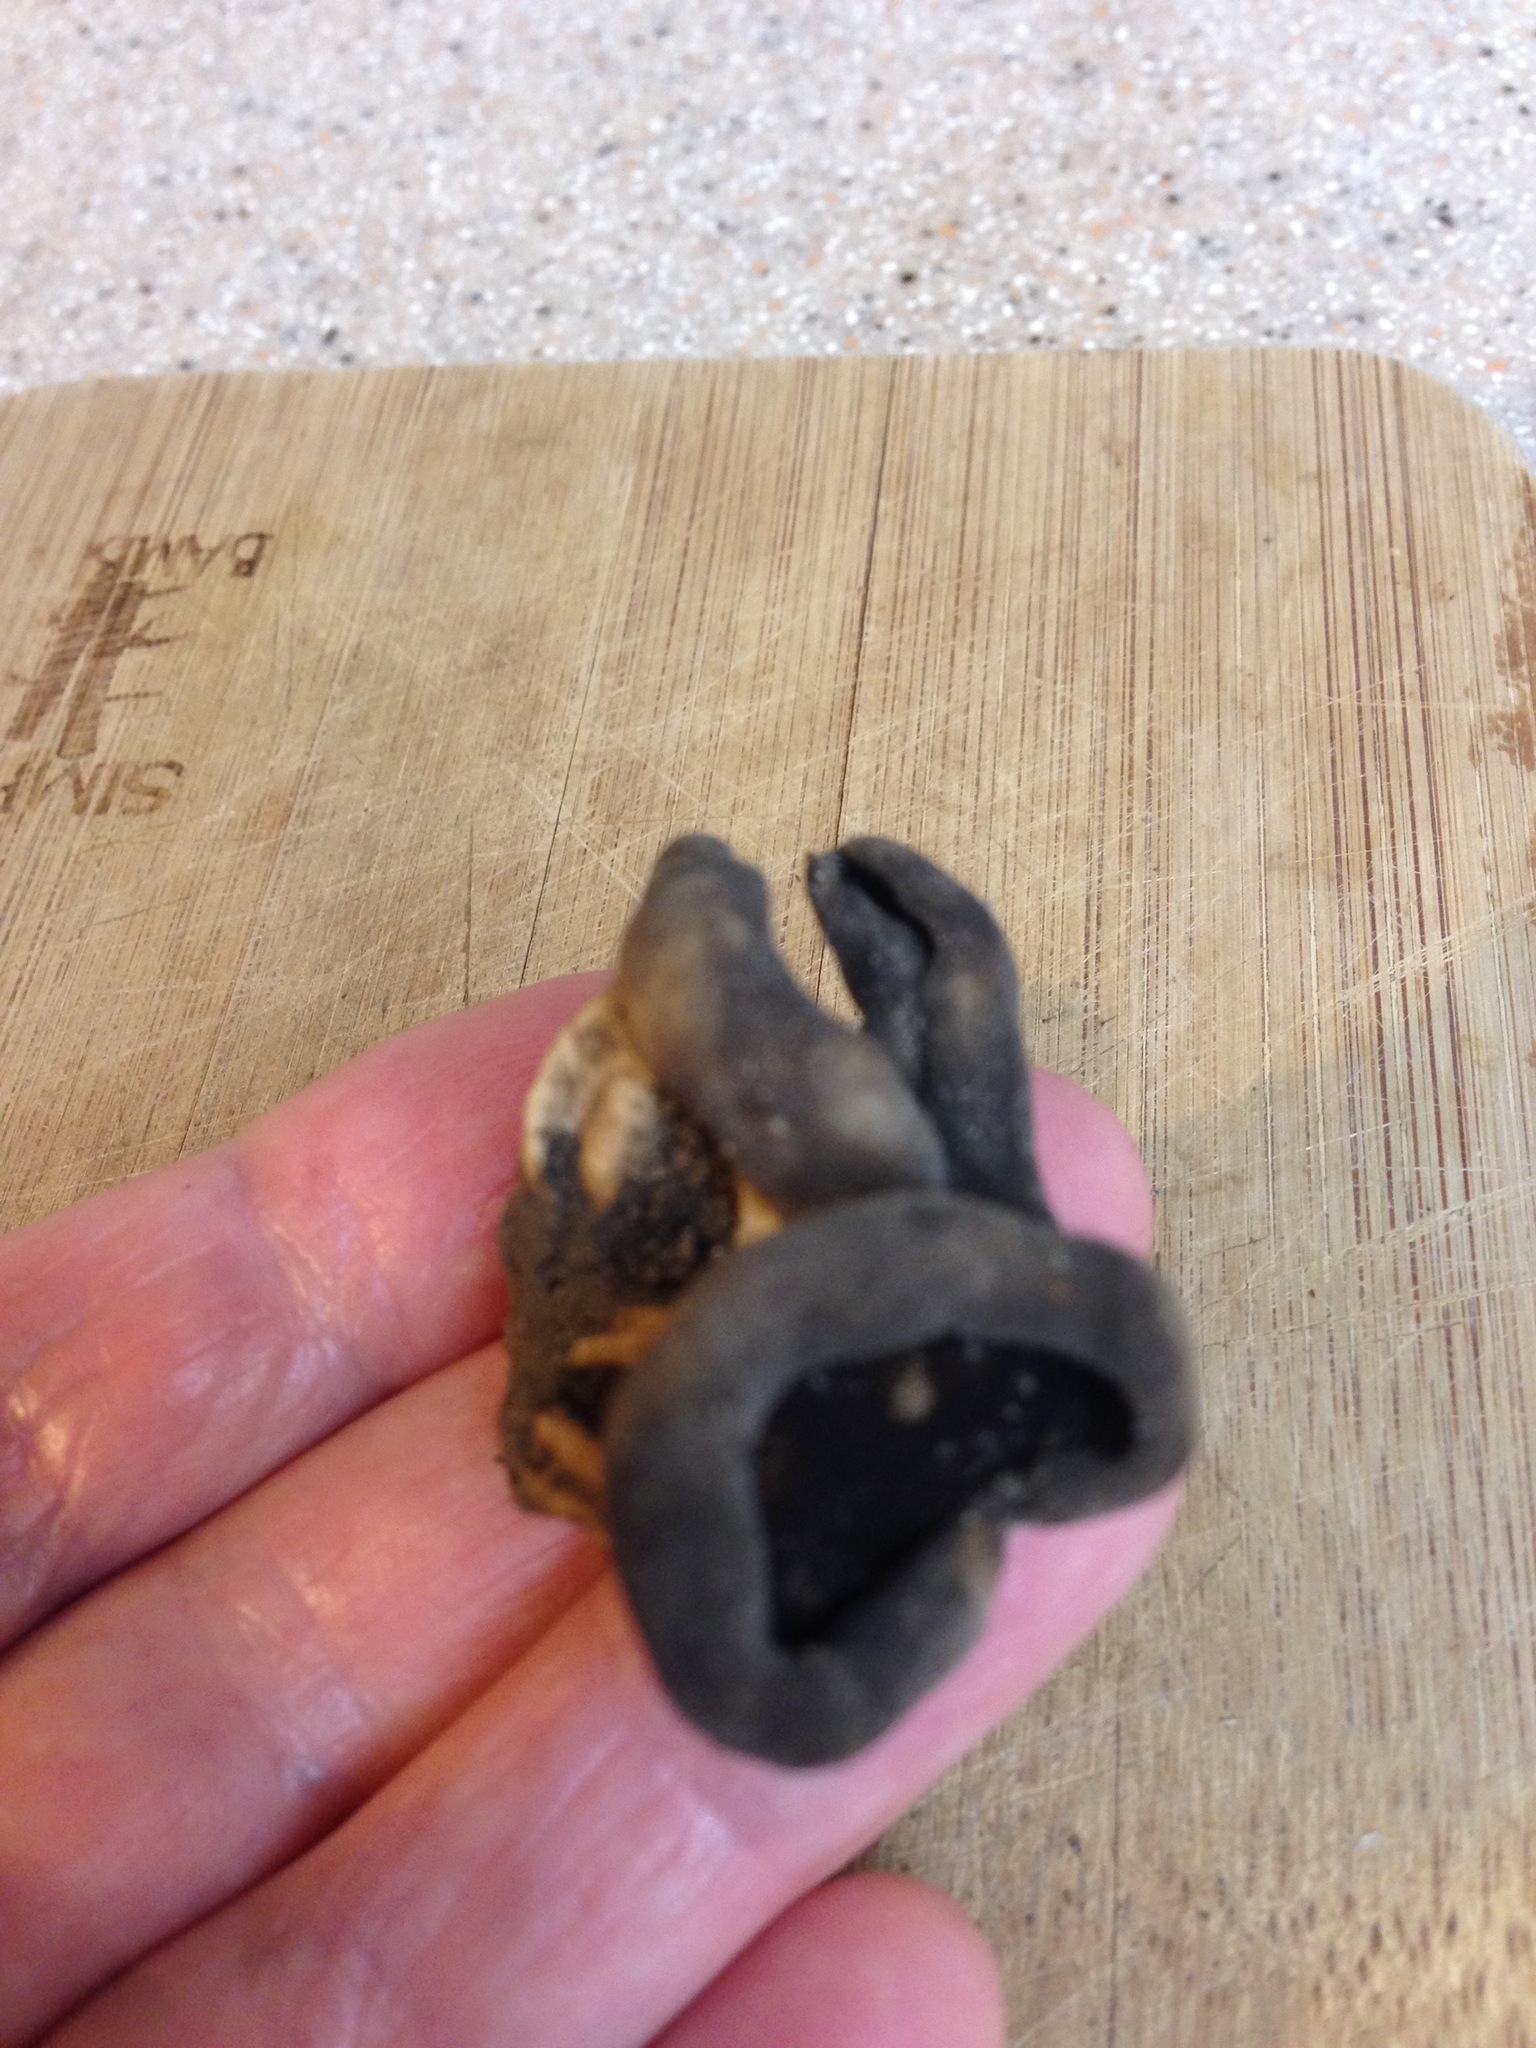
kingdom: Fungi
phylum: Ascomycota
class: Pezizomycetes
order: Pezizales
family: Helvellaceae
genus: Helvella
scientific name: Helvella acetabulum
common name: Vinegar cup
